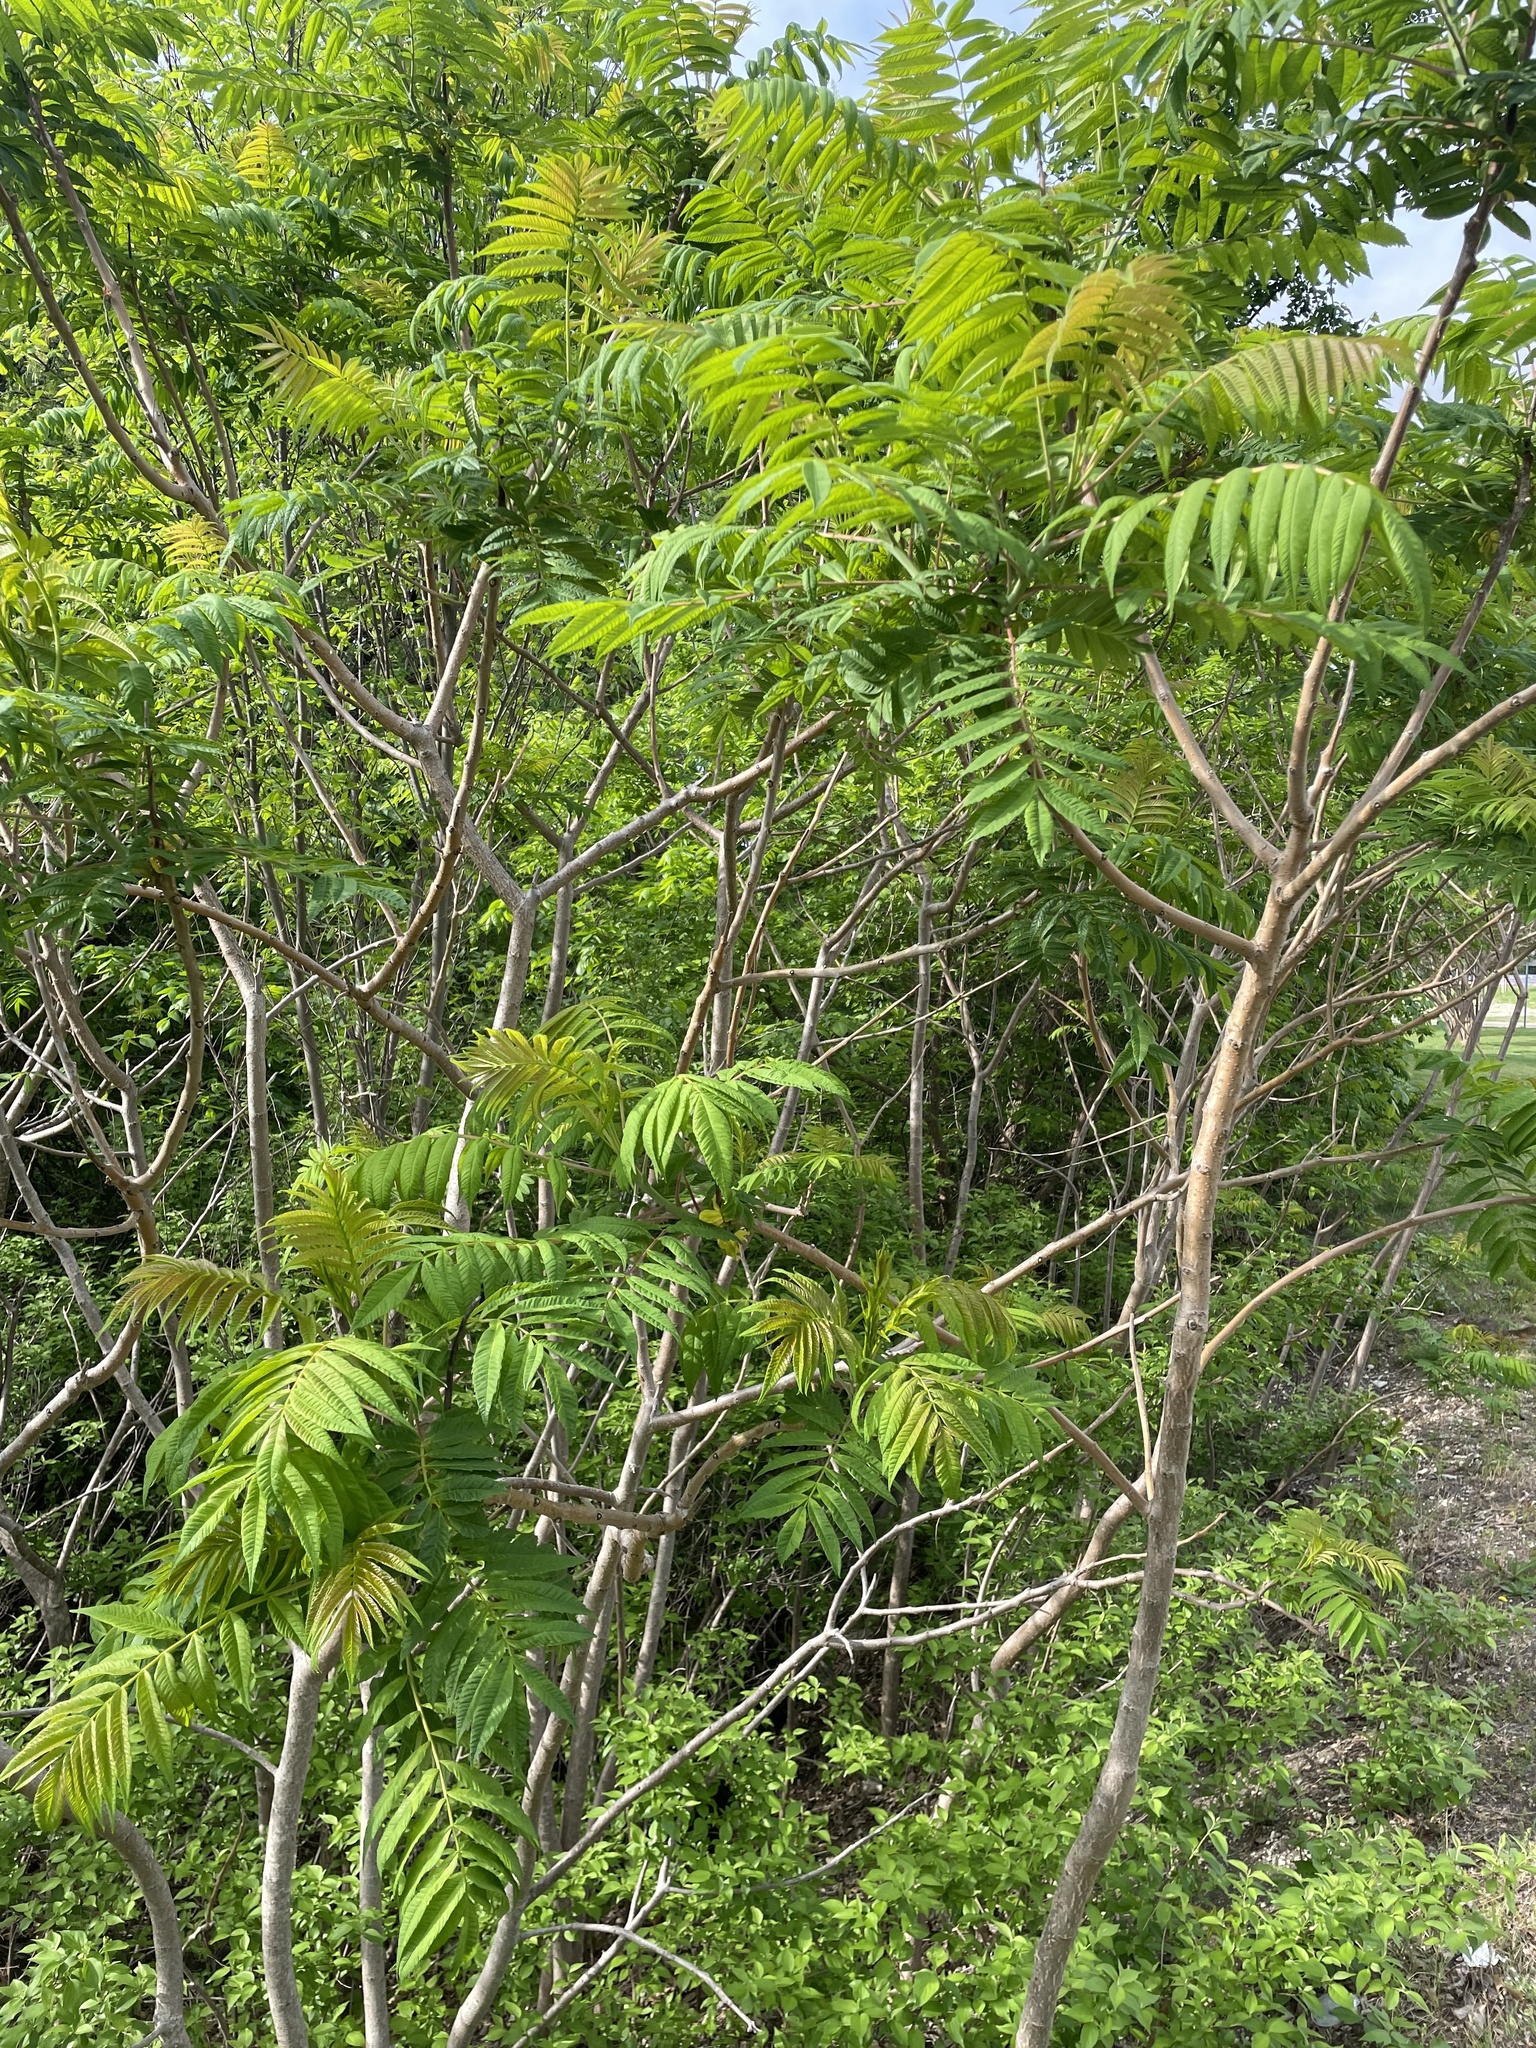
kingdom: Plantae
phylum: Tracheophyta
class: Magnoliopsida
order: Sapindales
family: Anacardiaceae
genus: Rhus
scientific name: Rhus glabra
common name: Scarlet sumac
